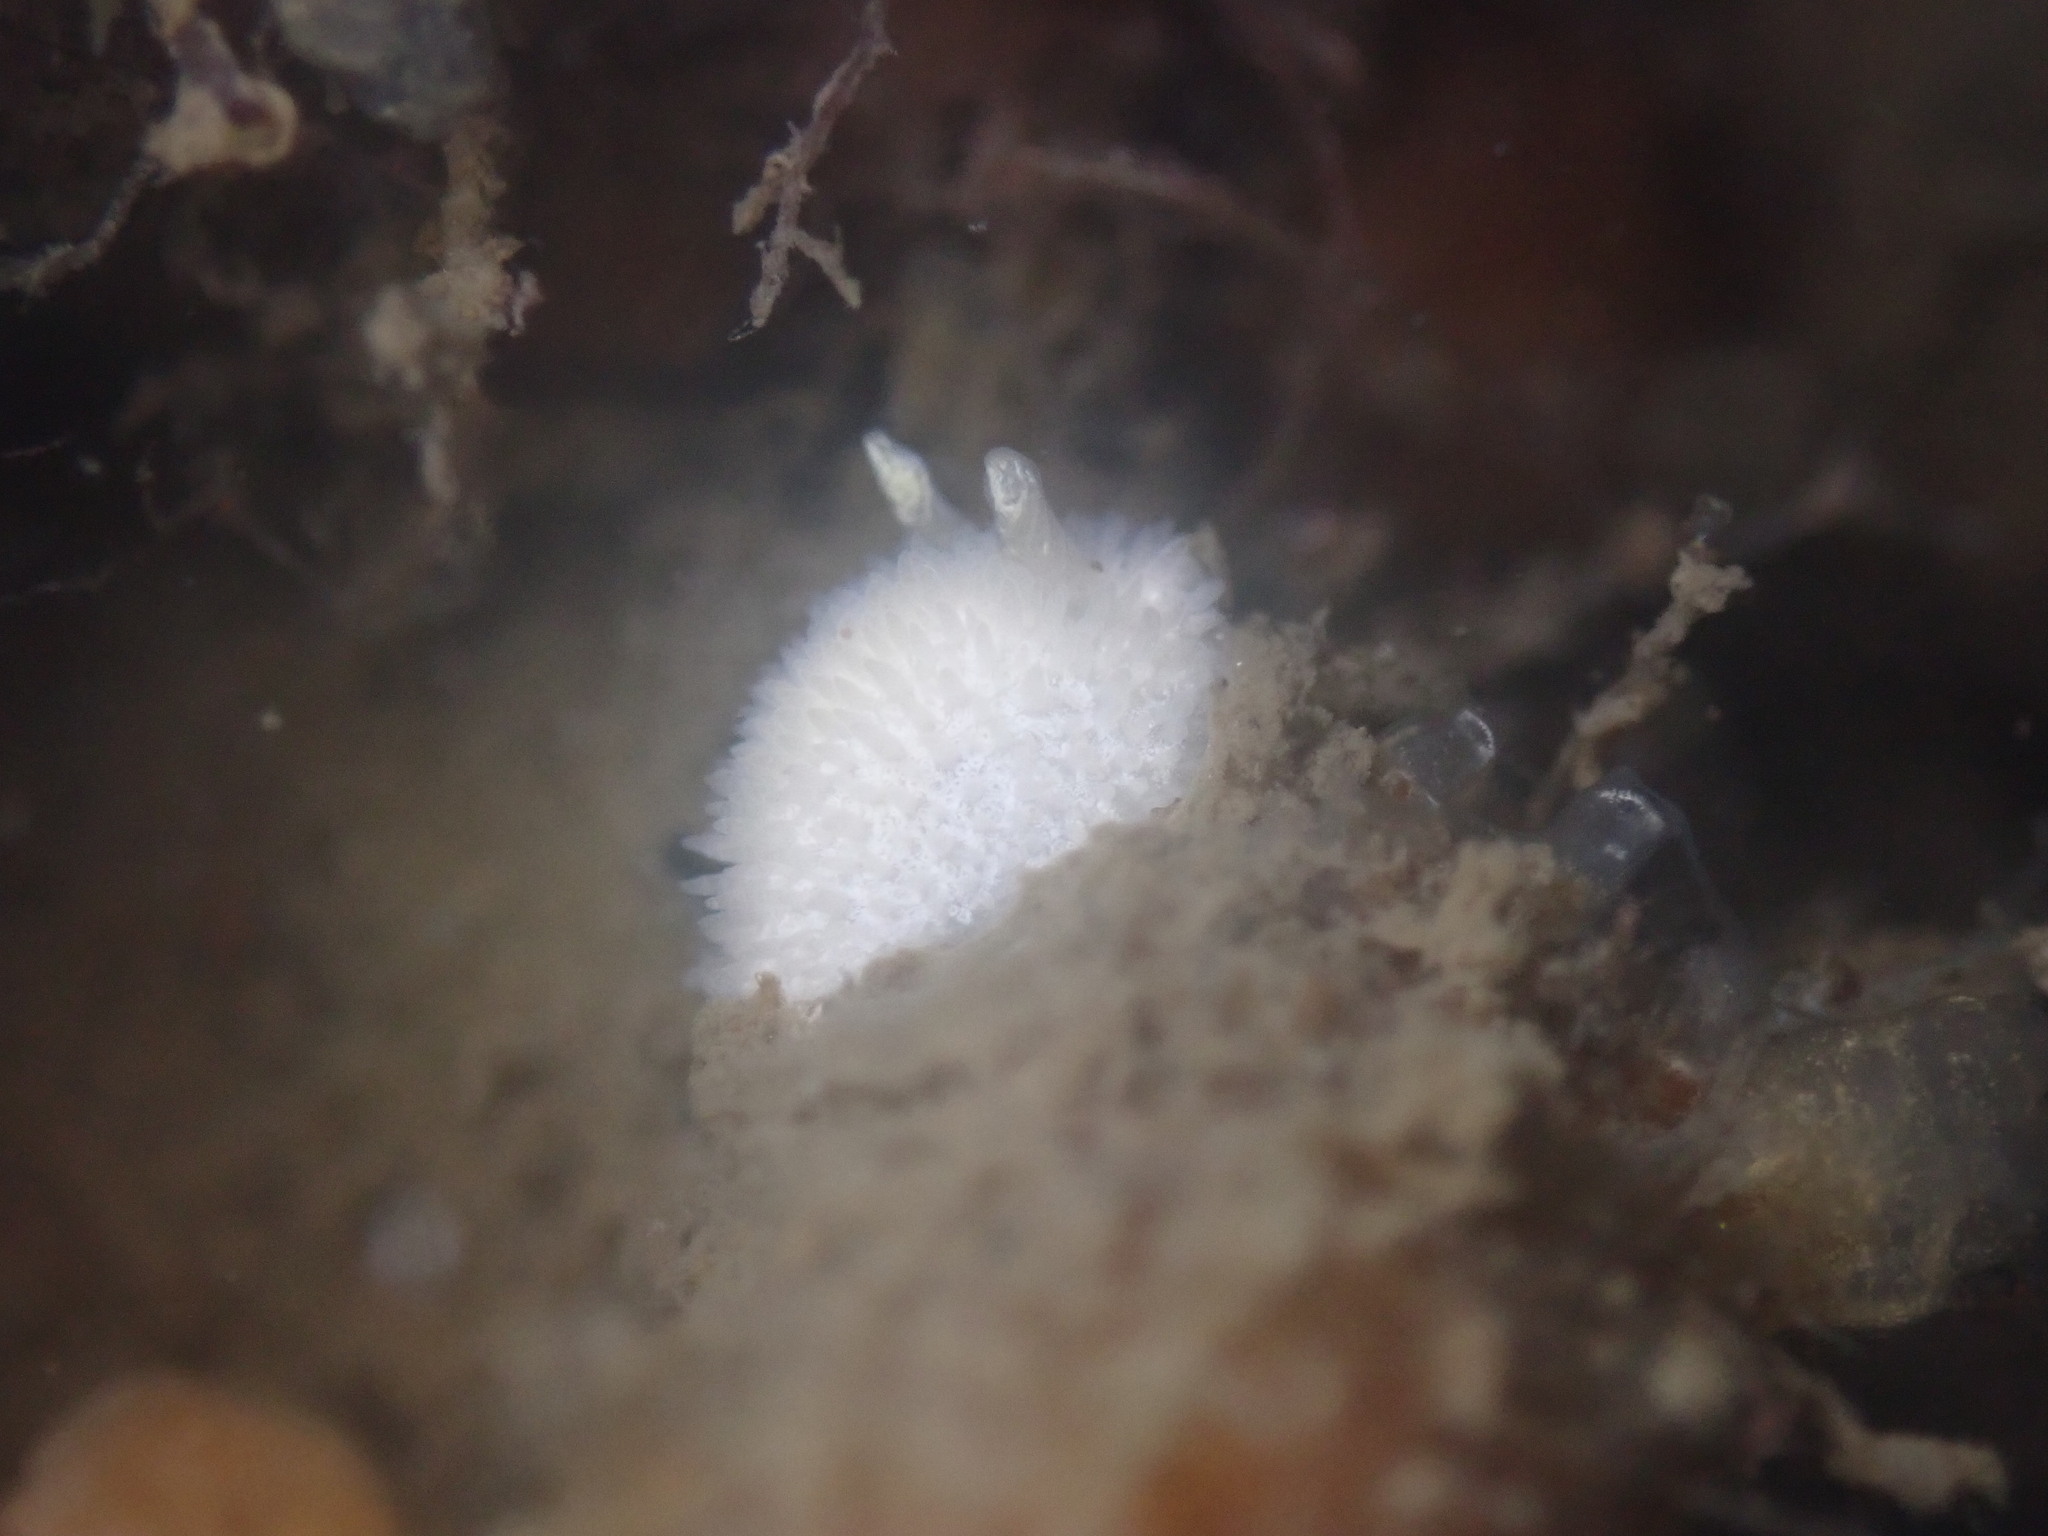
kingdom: Animalia
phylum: Mollusca
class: Gastropoda
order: Nudibranchia
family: Calycidorididae
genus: Diaphorodoris
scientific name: Diaphorodoris lirulatocauda
